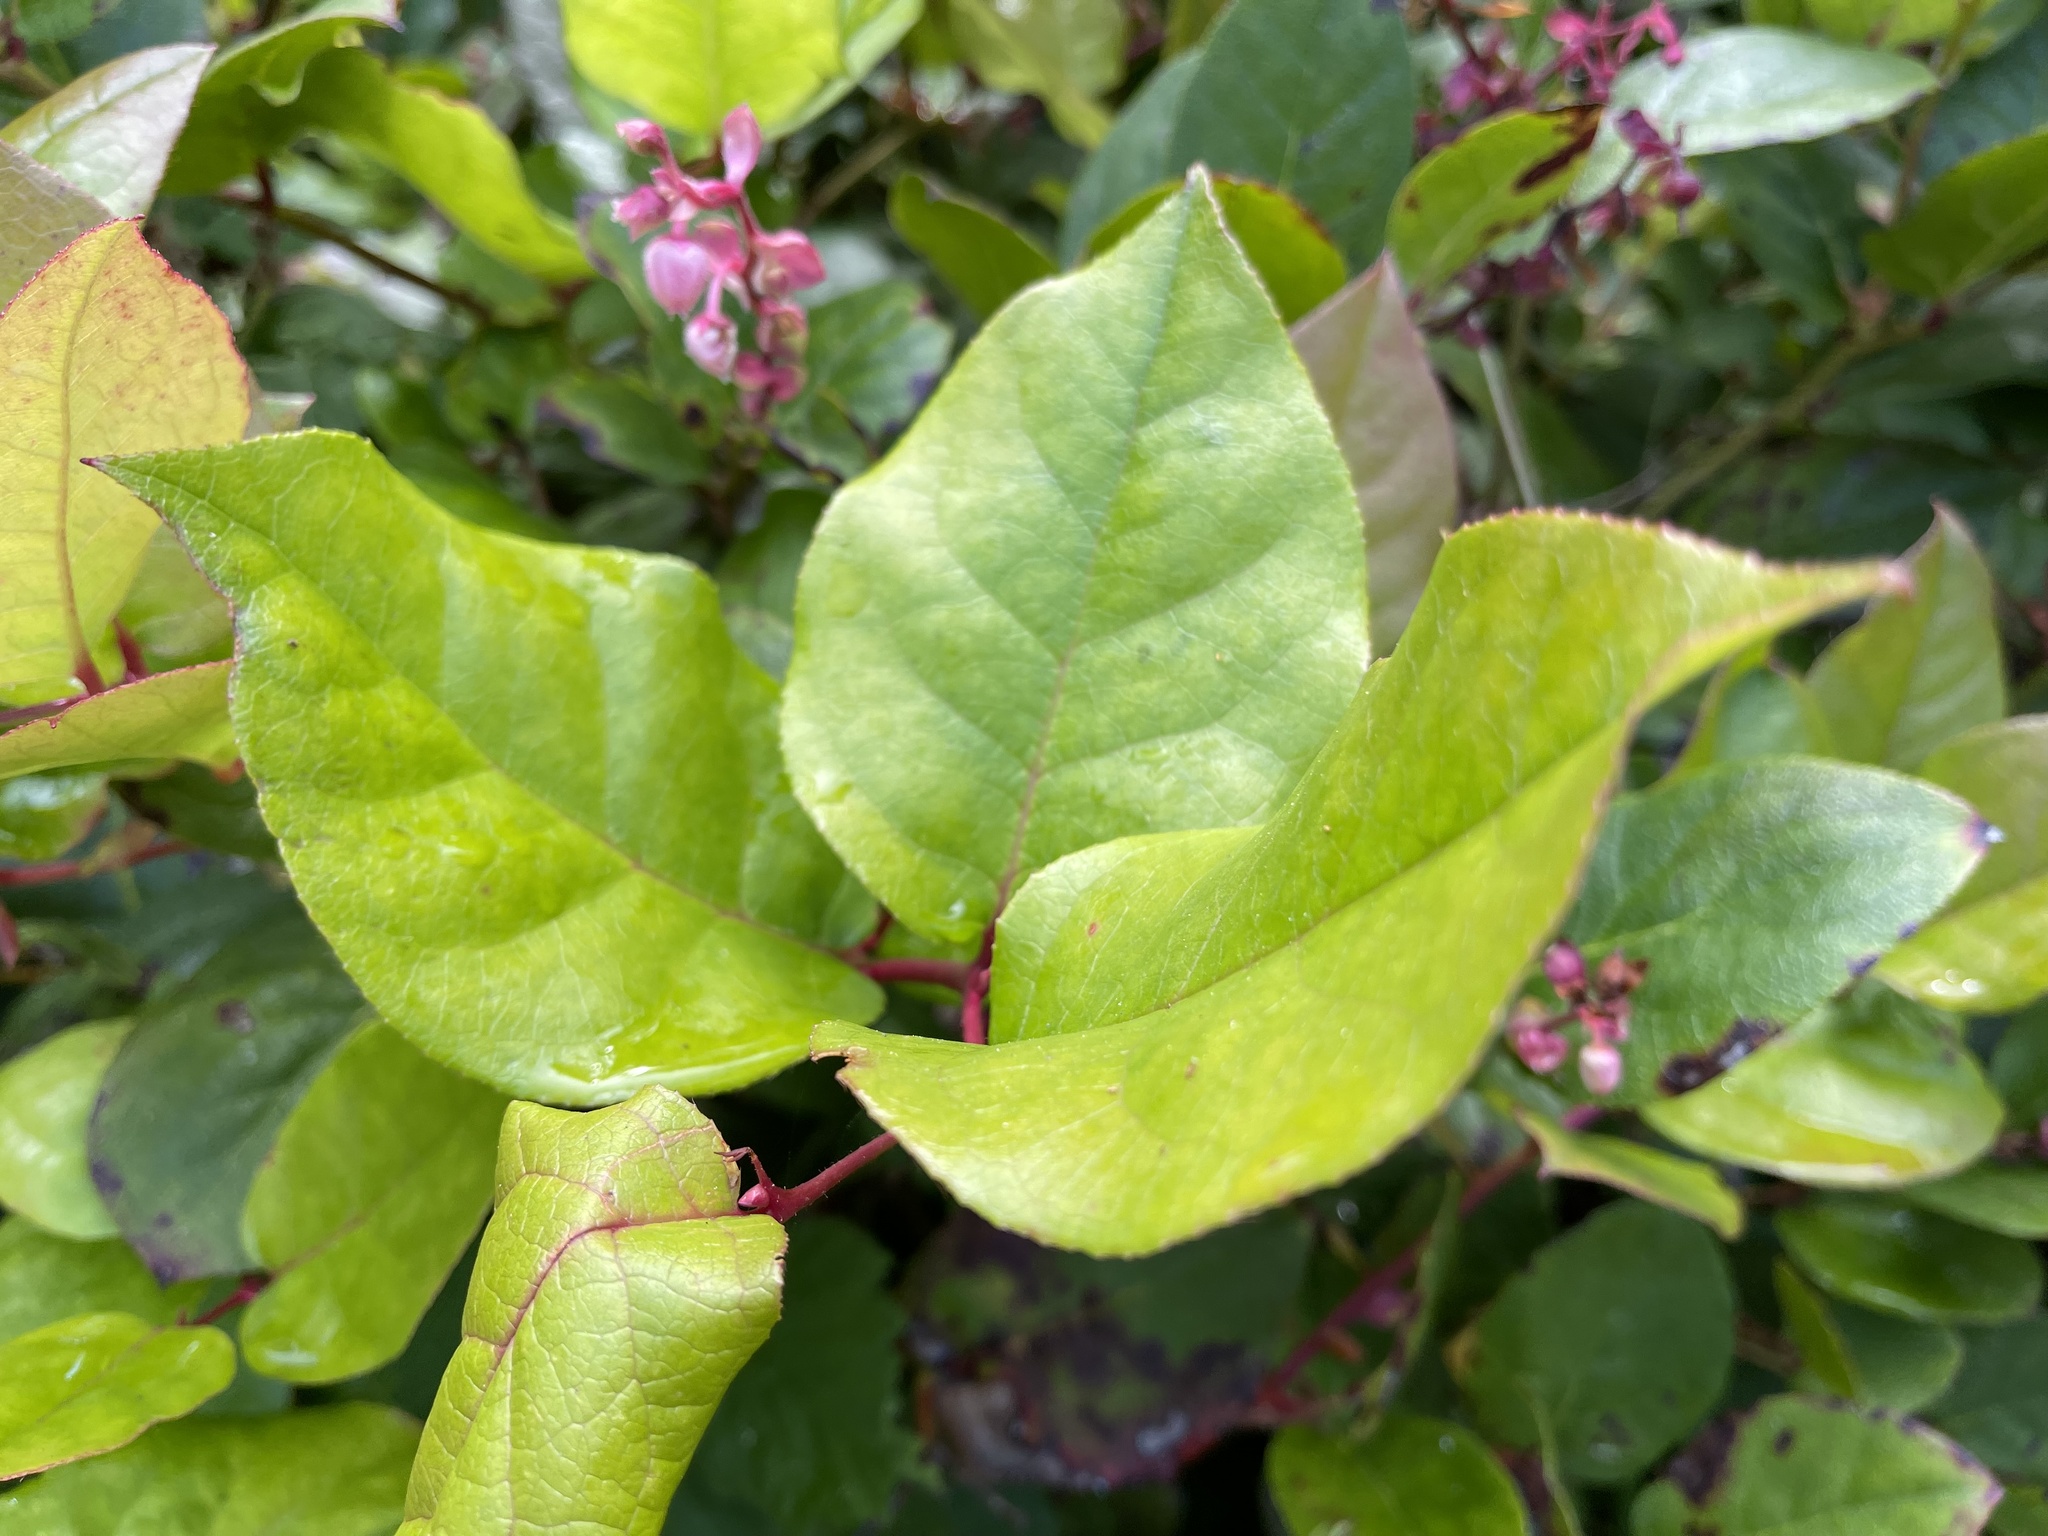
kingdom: Plantae
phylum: Tracheophyta
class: Magnoliopsida
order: Ericales
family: Ericaceae
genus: Gaultheria
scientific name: Gaultheria shallon
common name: Shallon
